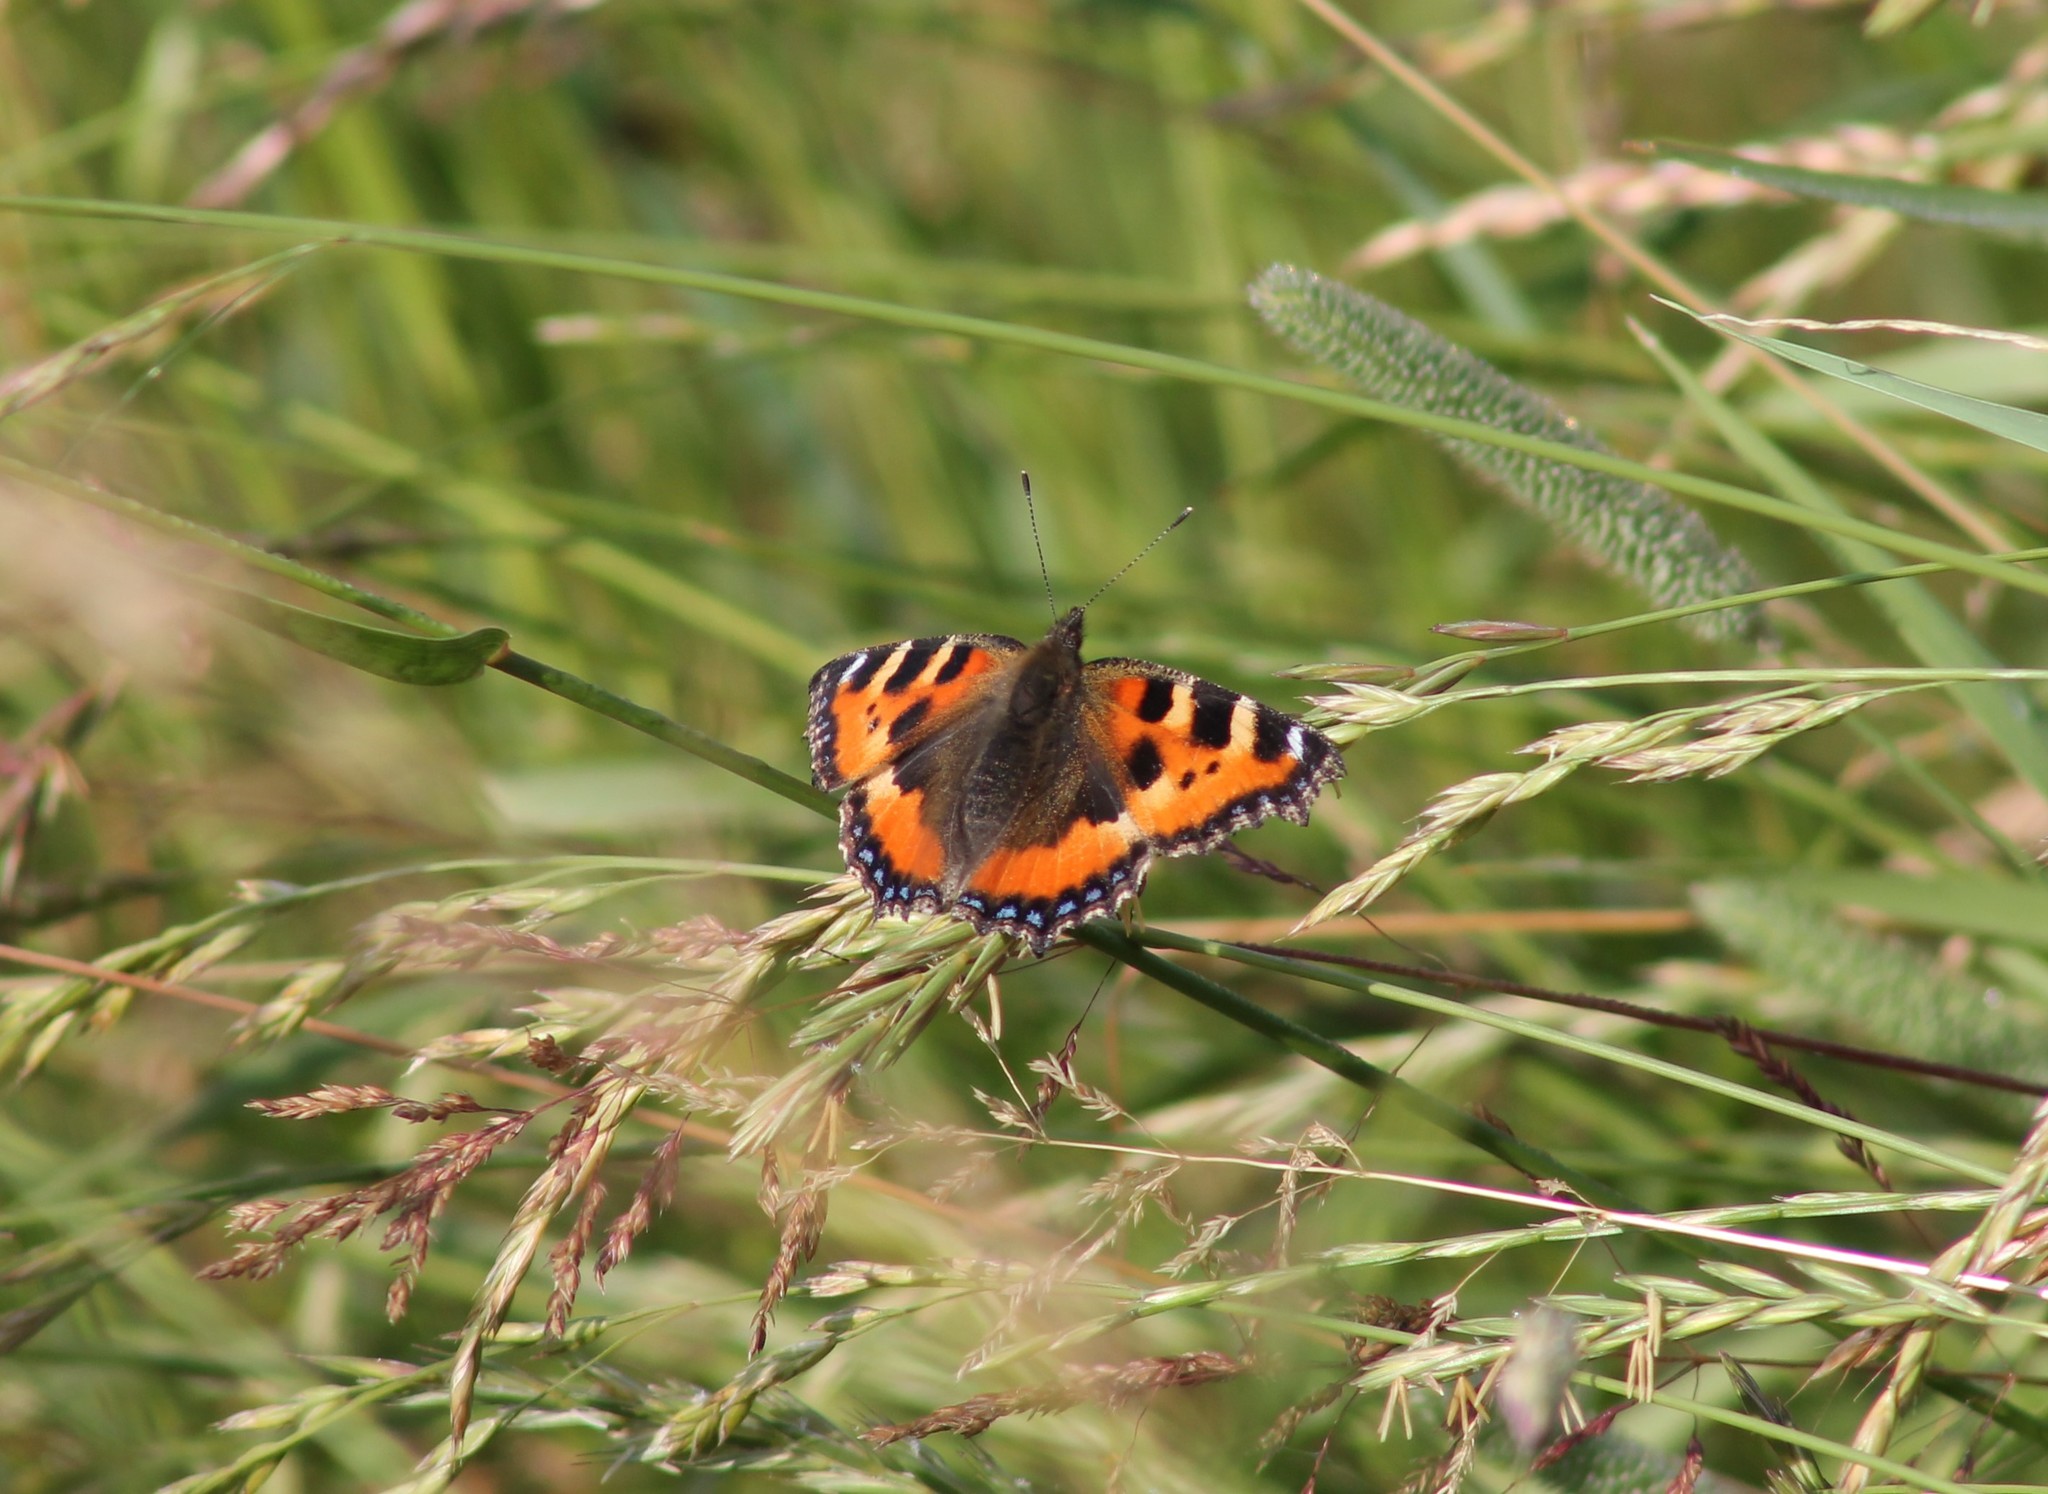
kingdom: Animalia
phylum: Arthropoda
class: Insecta
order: Lepidoptera
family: Nymphalidae
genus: Aglais
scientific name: Aglais urticae
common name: Small tortoiseshell
